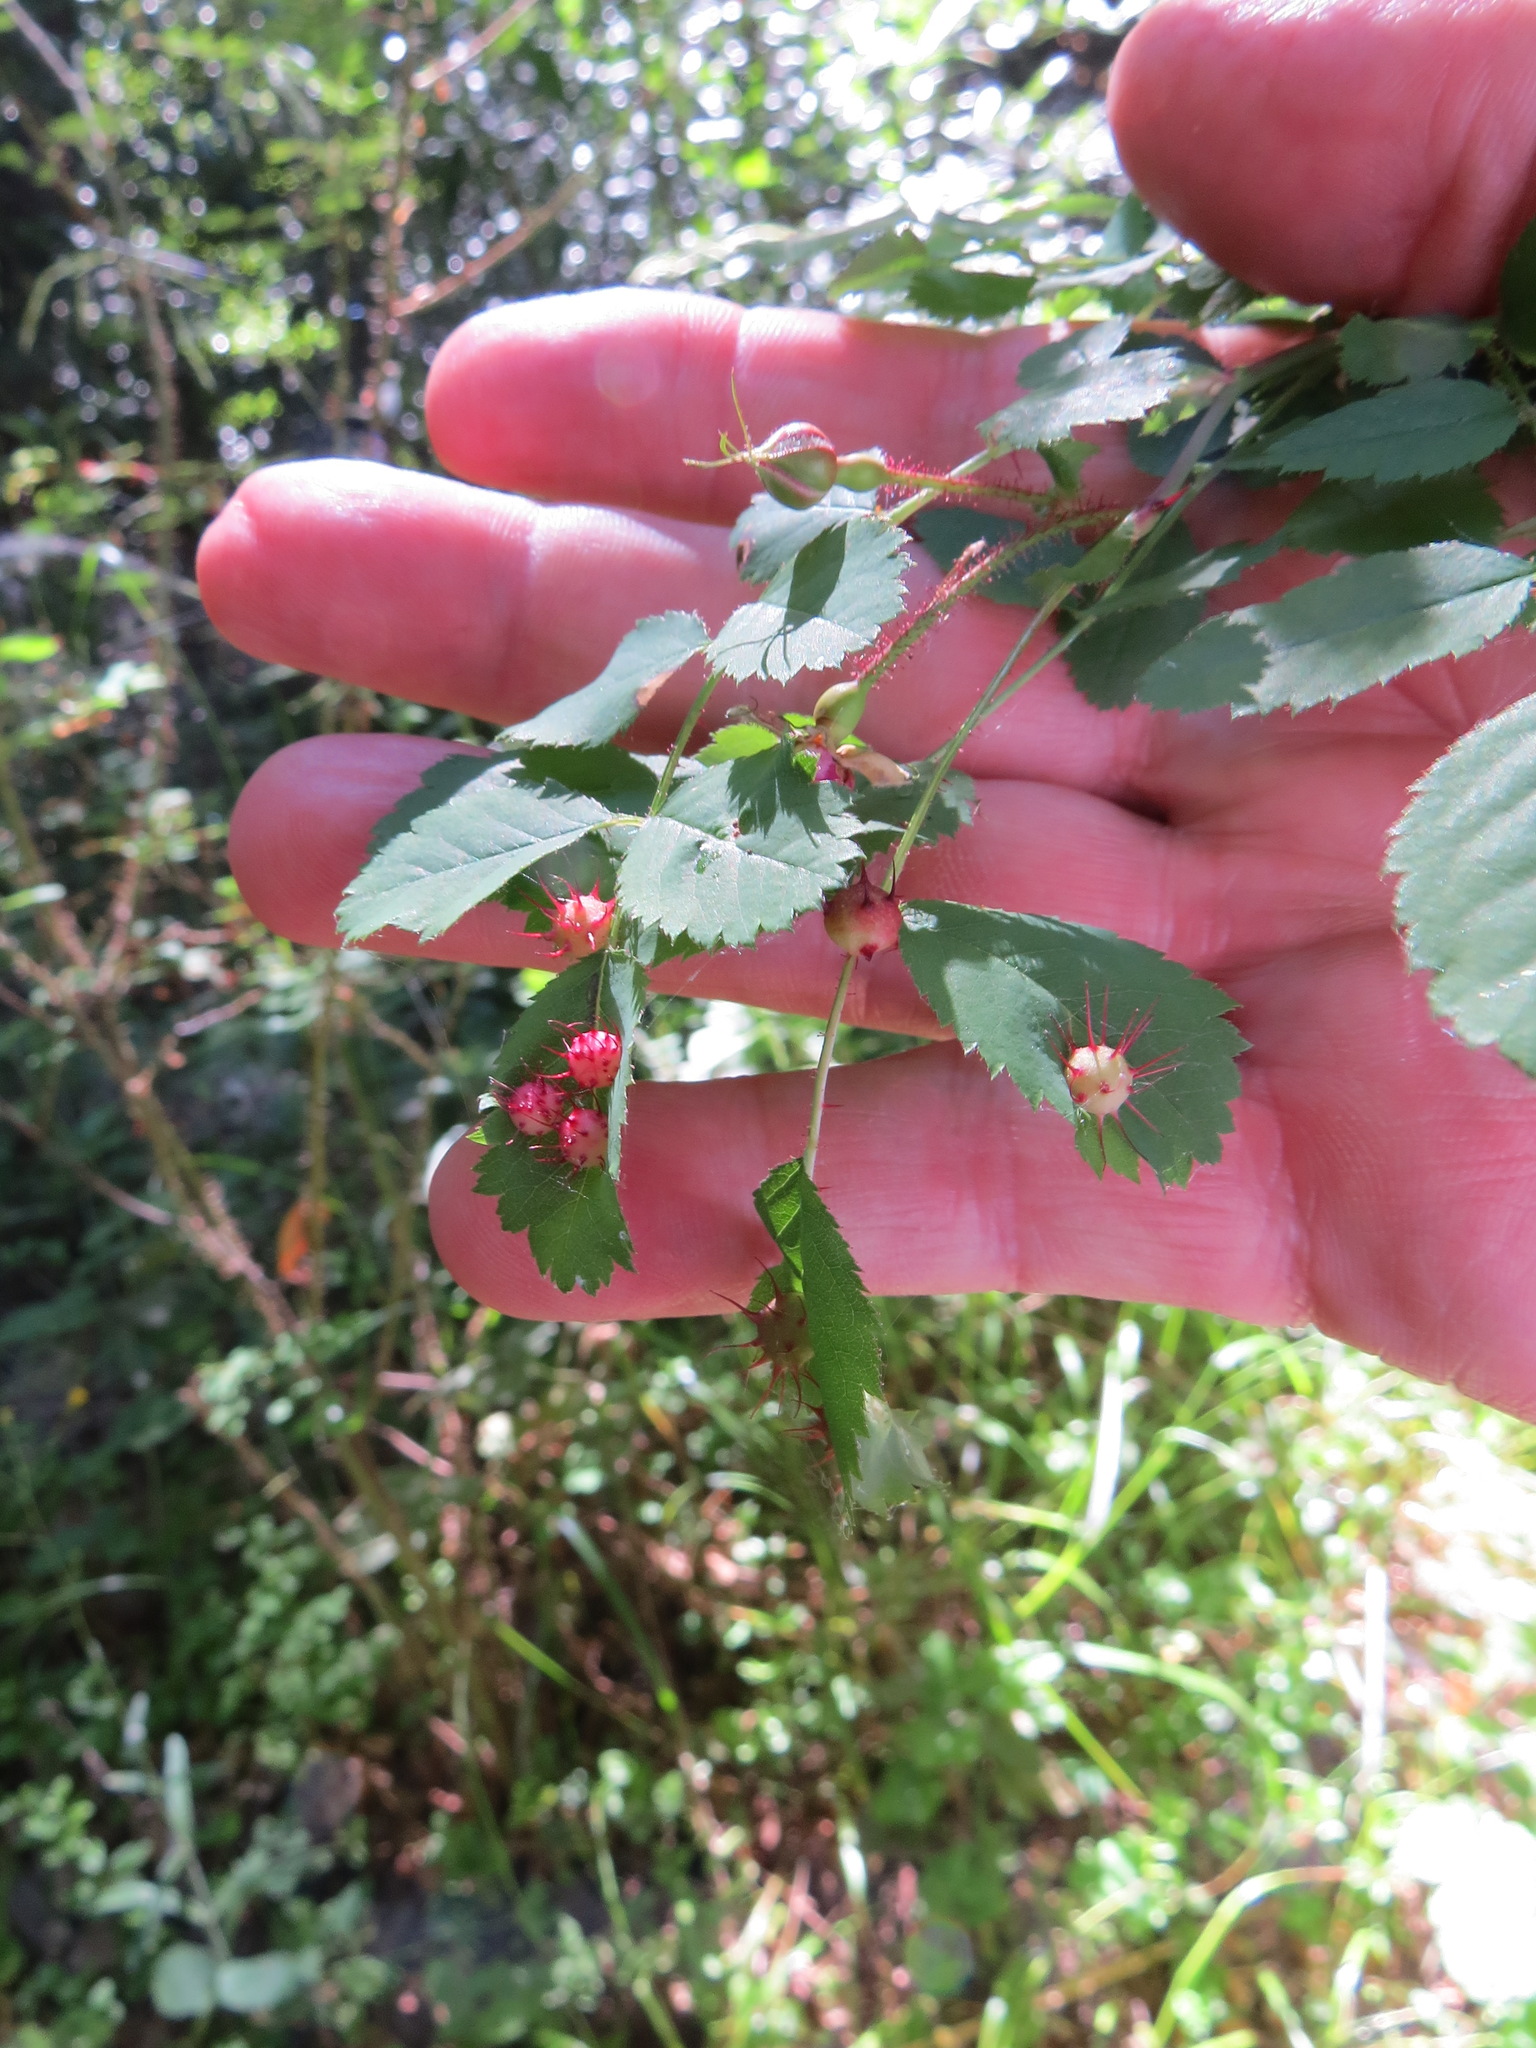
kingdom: Animalia
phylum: Arthropoda
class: Insecta
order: Hymenoptera
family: Cynipidae
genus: Diplolepis
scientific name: Diplolepis polita
